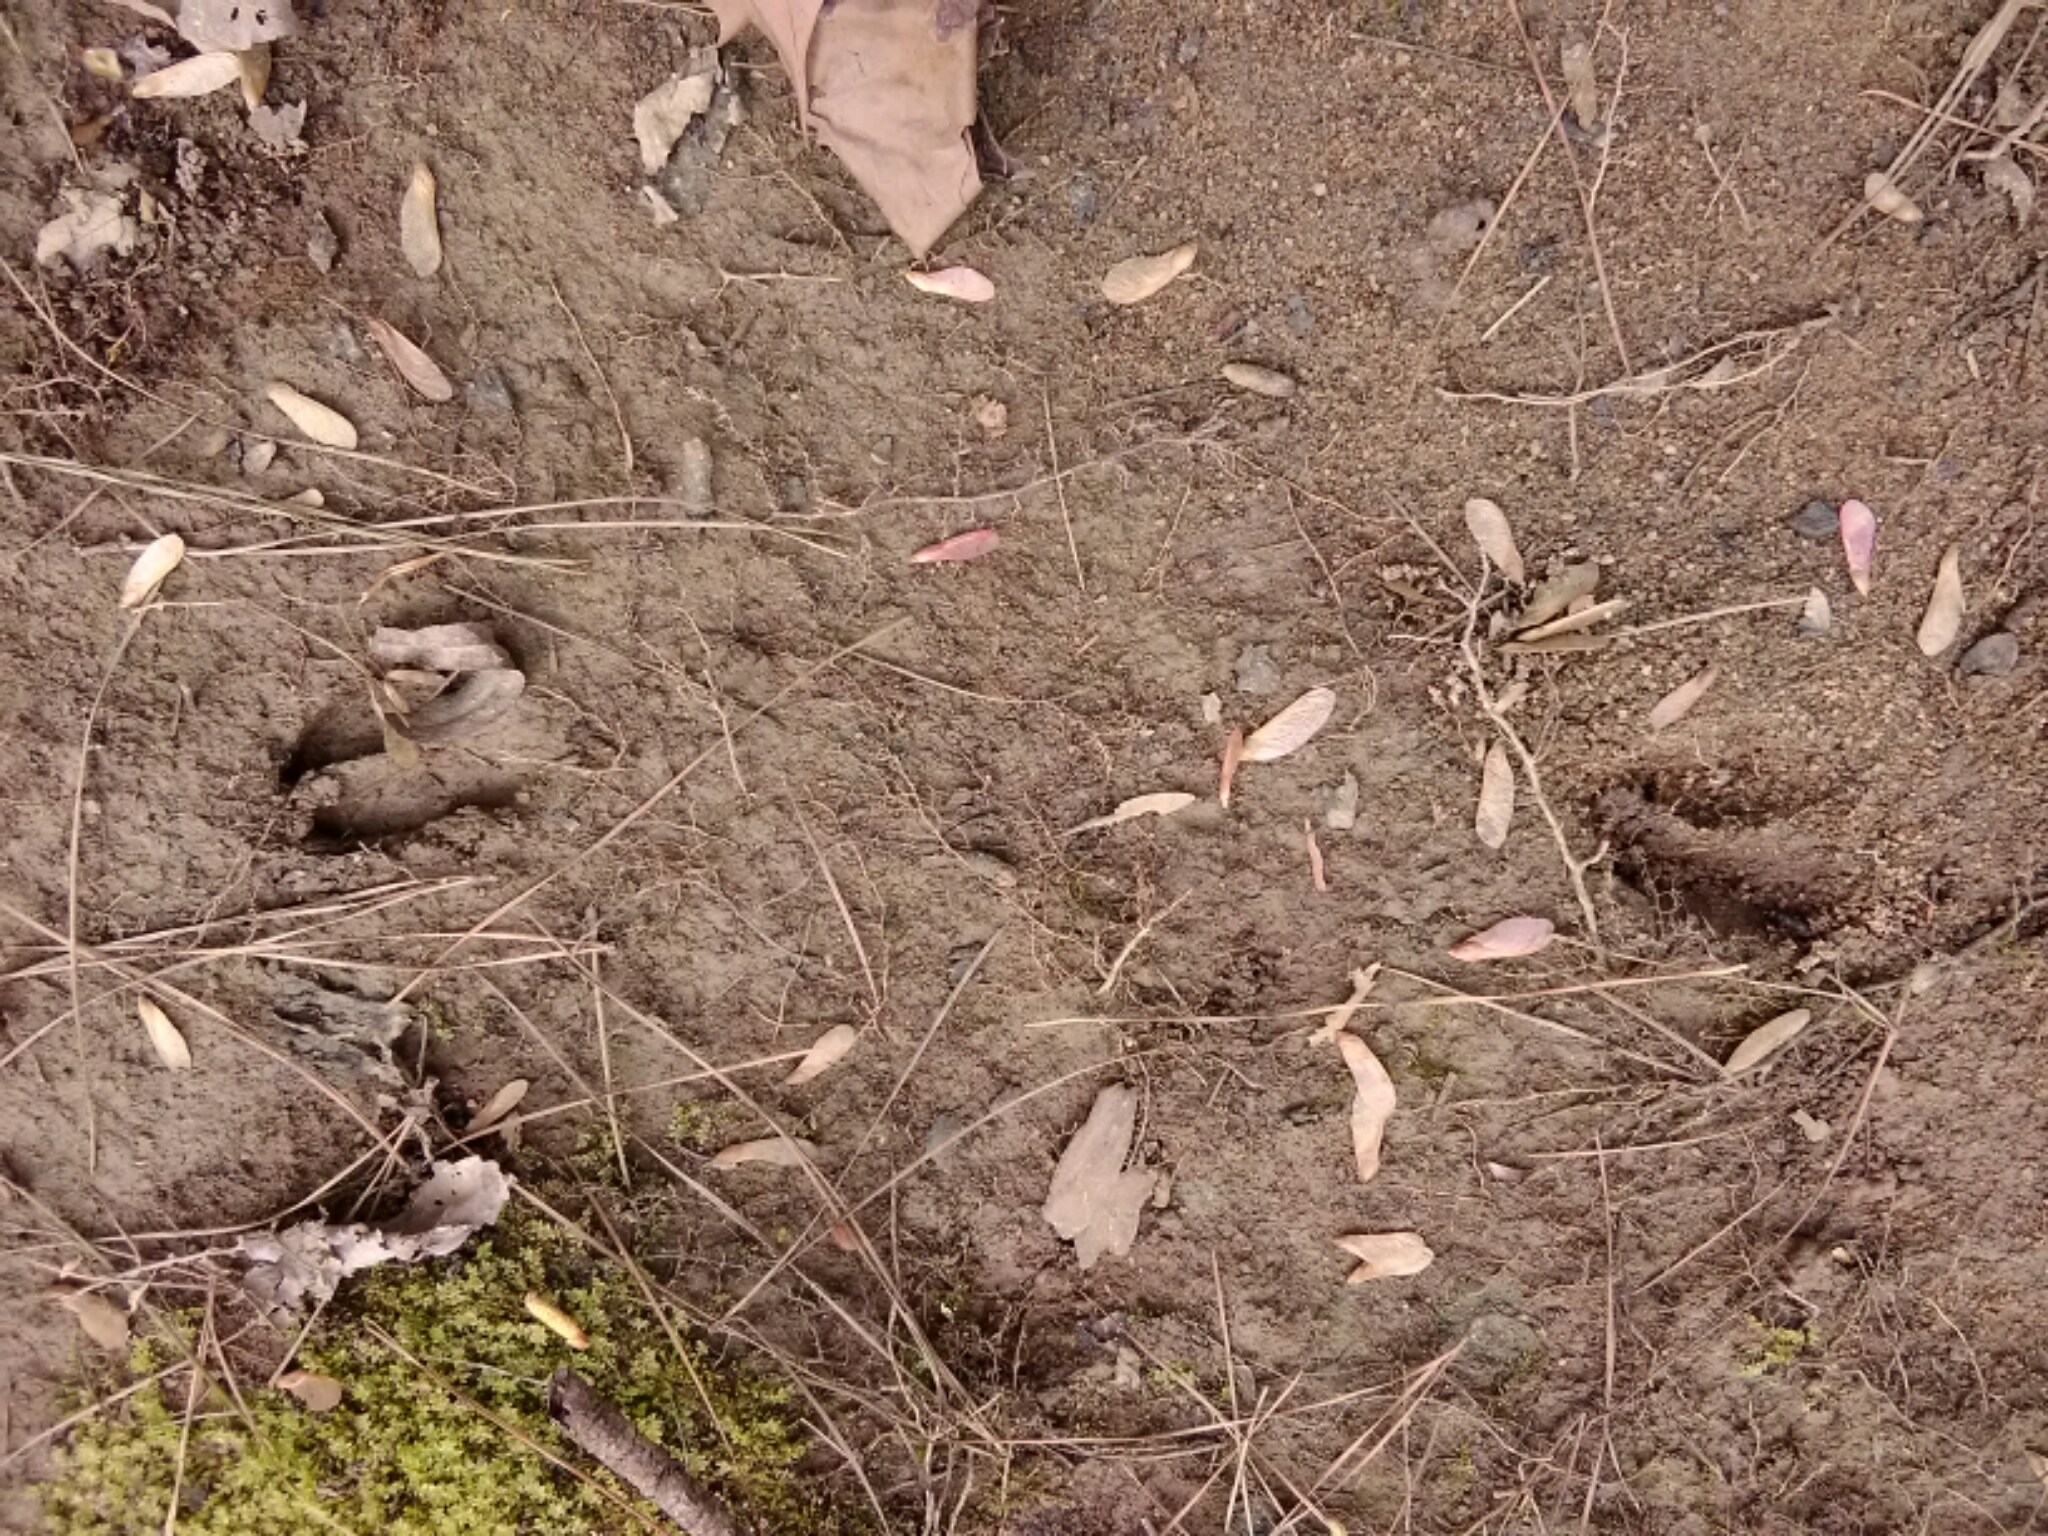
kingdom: Animalia
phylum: Chordata
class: Mammalia
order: Artiodactyla
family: Cervidae
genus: Odocoileus
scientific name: Odocoileus virginianus
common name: White-tailed deer
